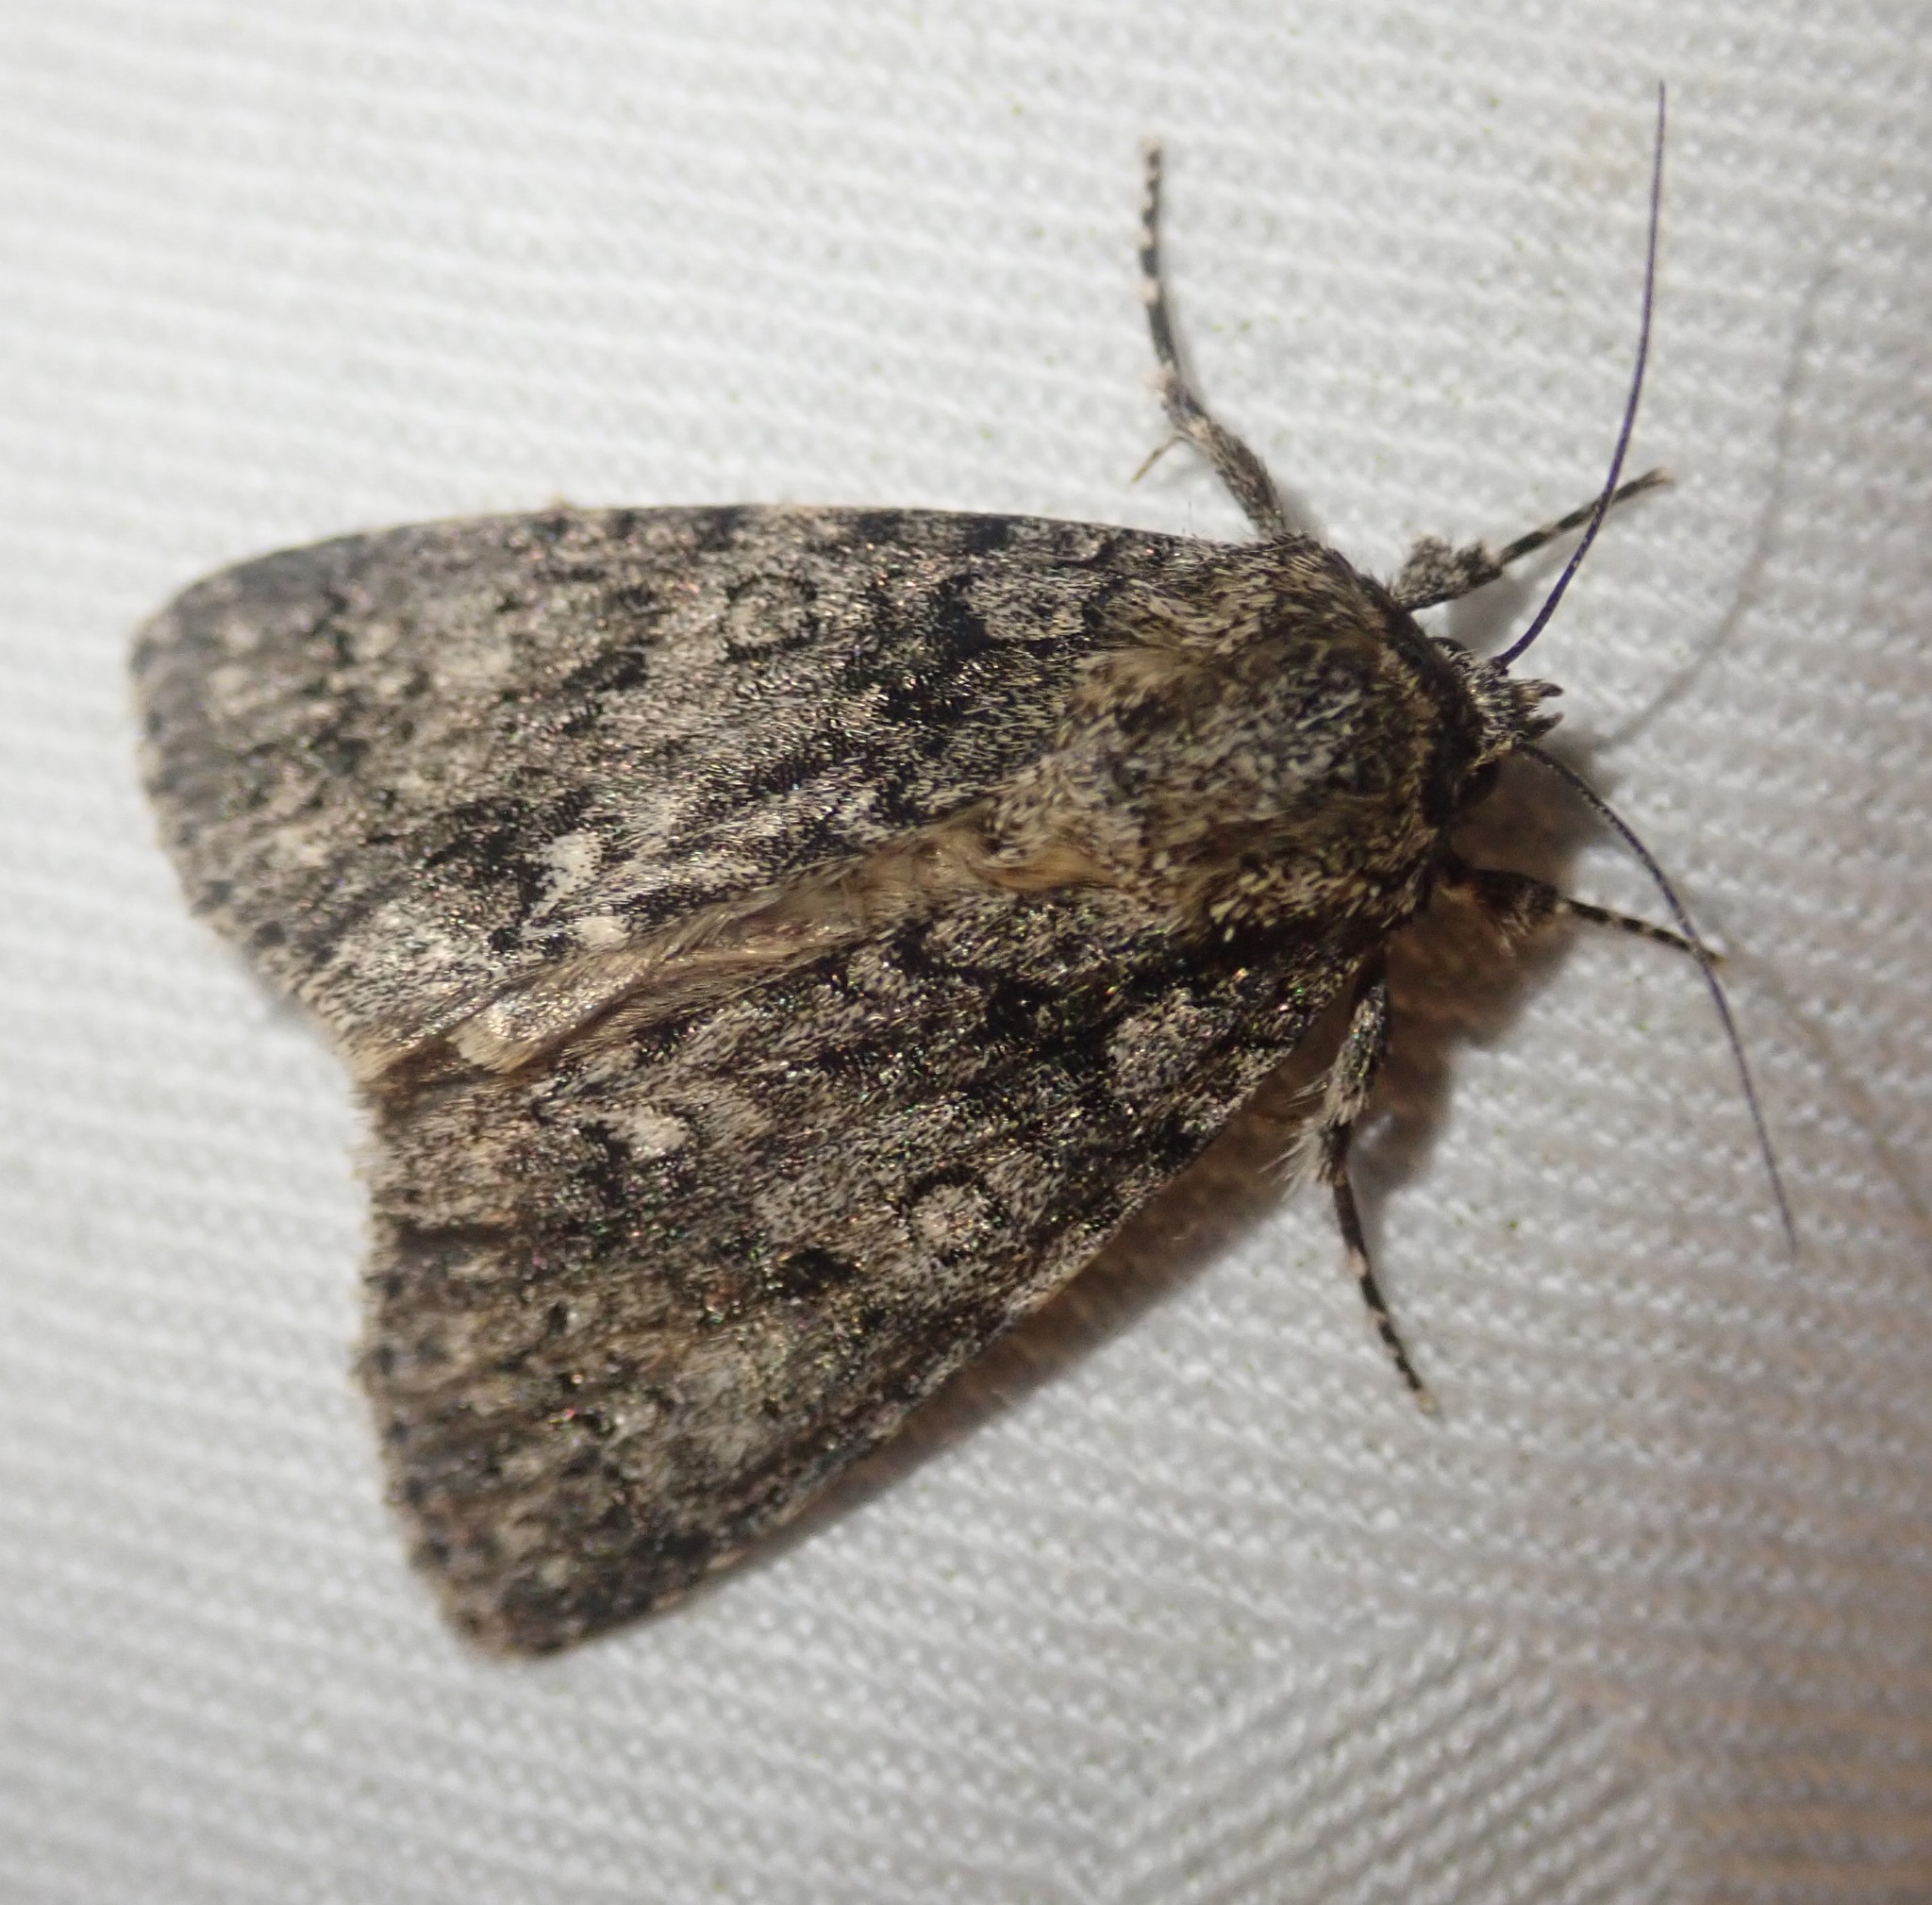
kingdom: Animalia
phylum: Arthropoda
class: Insecta
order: Lepidoptera
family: Noctuidae
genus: Acronicta
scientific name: Acronicta rumicis
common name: Knot grass
